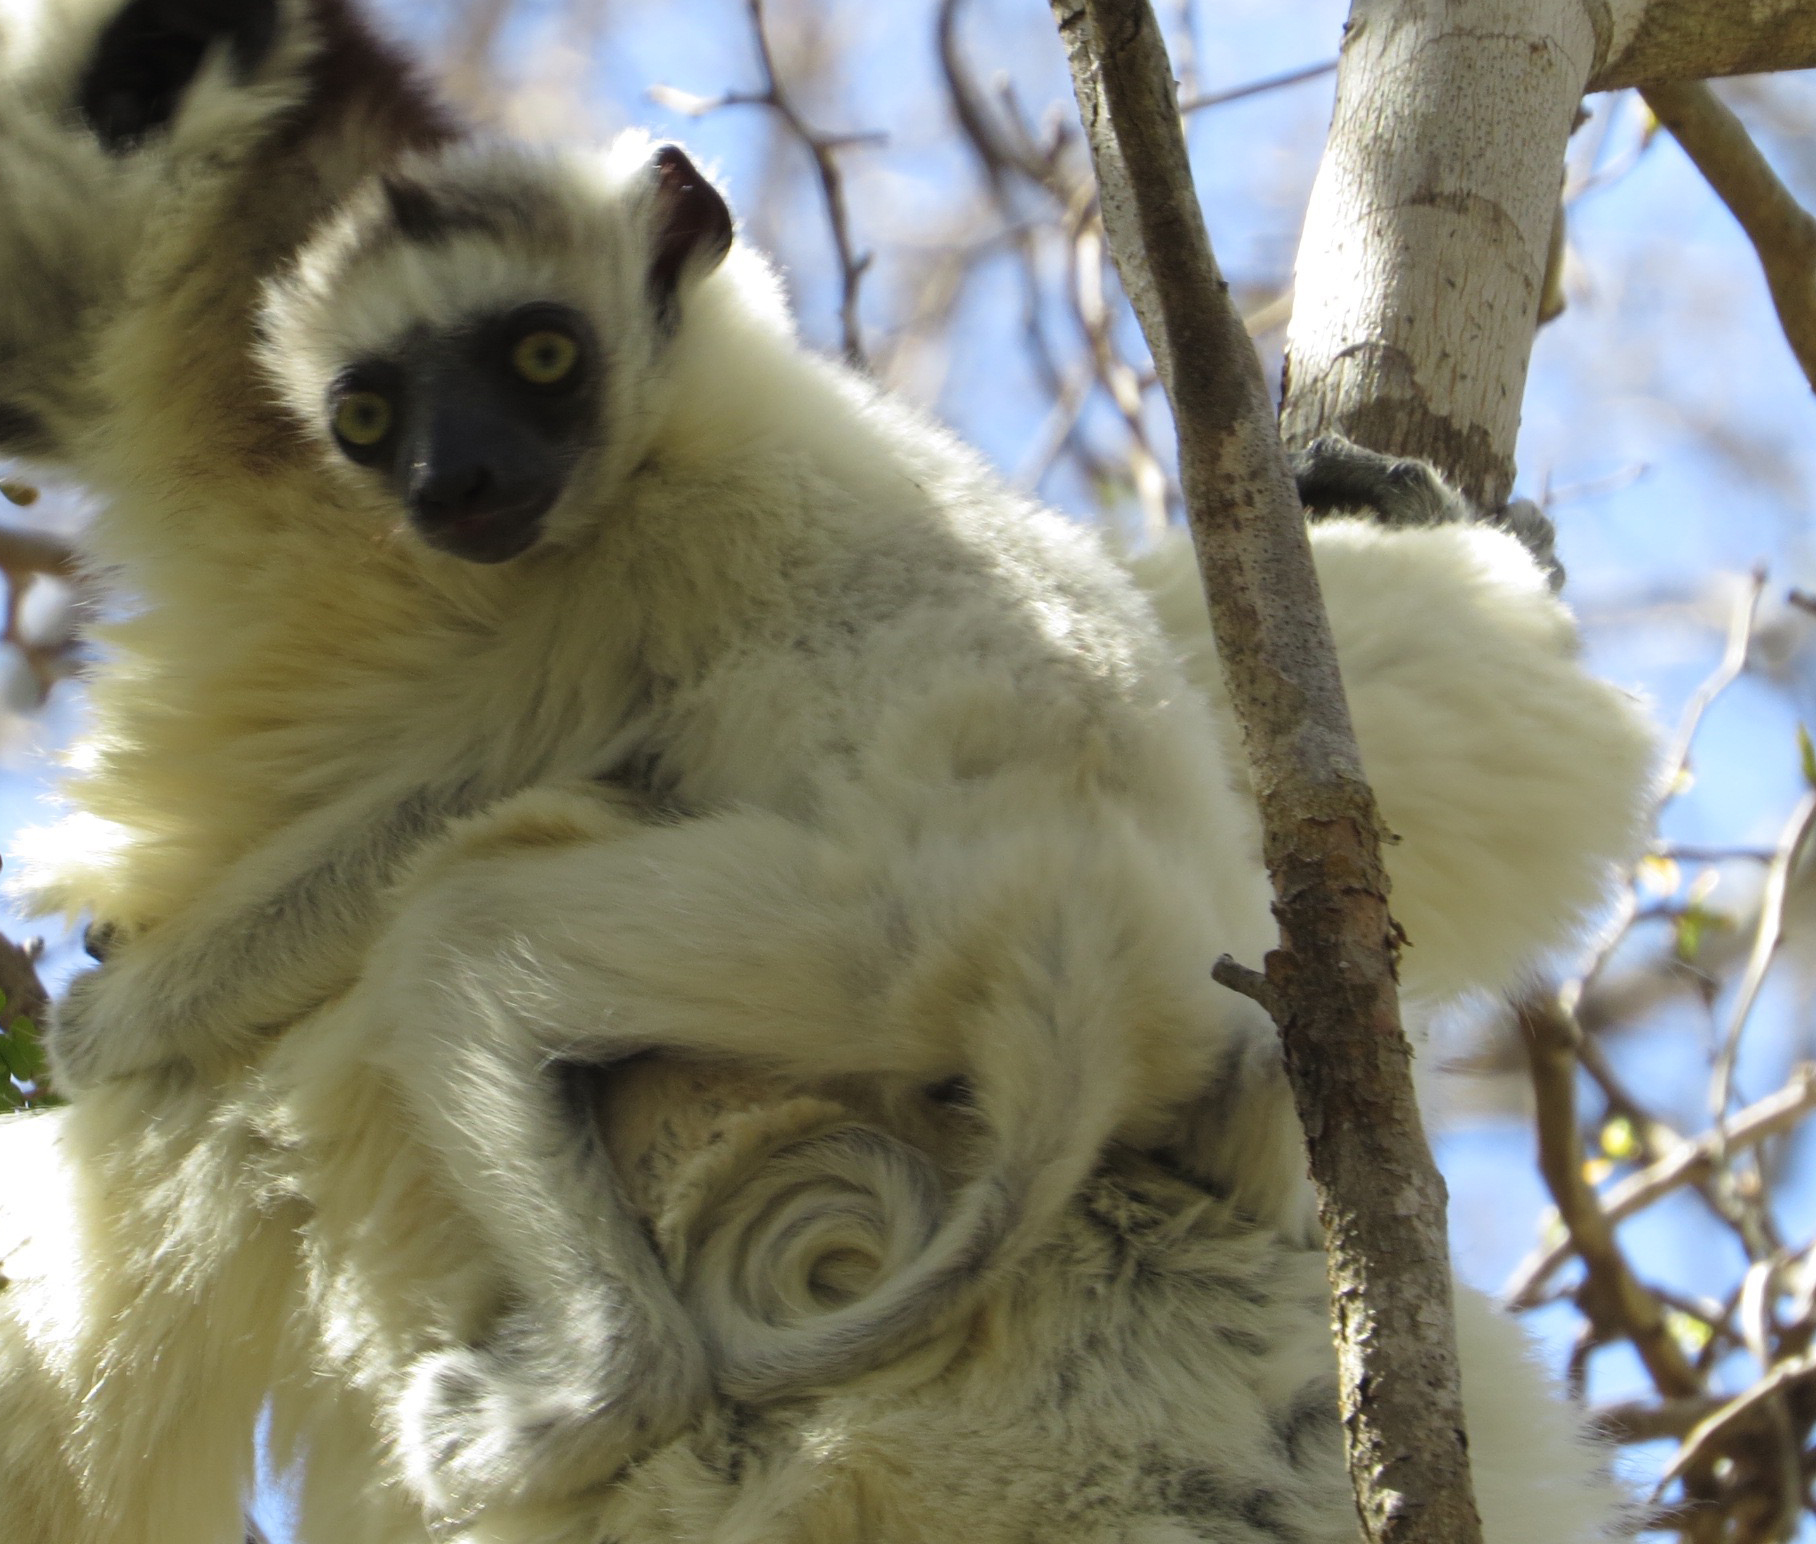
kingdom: Animalia
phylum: Chordata
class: Mammalia
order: Primates
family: Indriidae
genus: Propithecus
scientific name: Propithecus verreauxi
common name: Verreaux's sifaka
